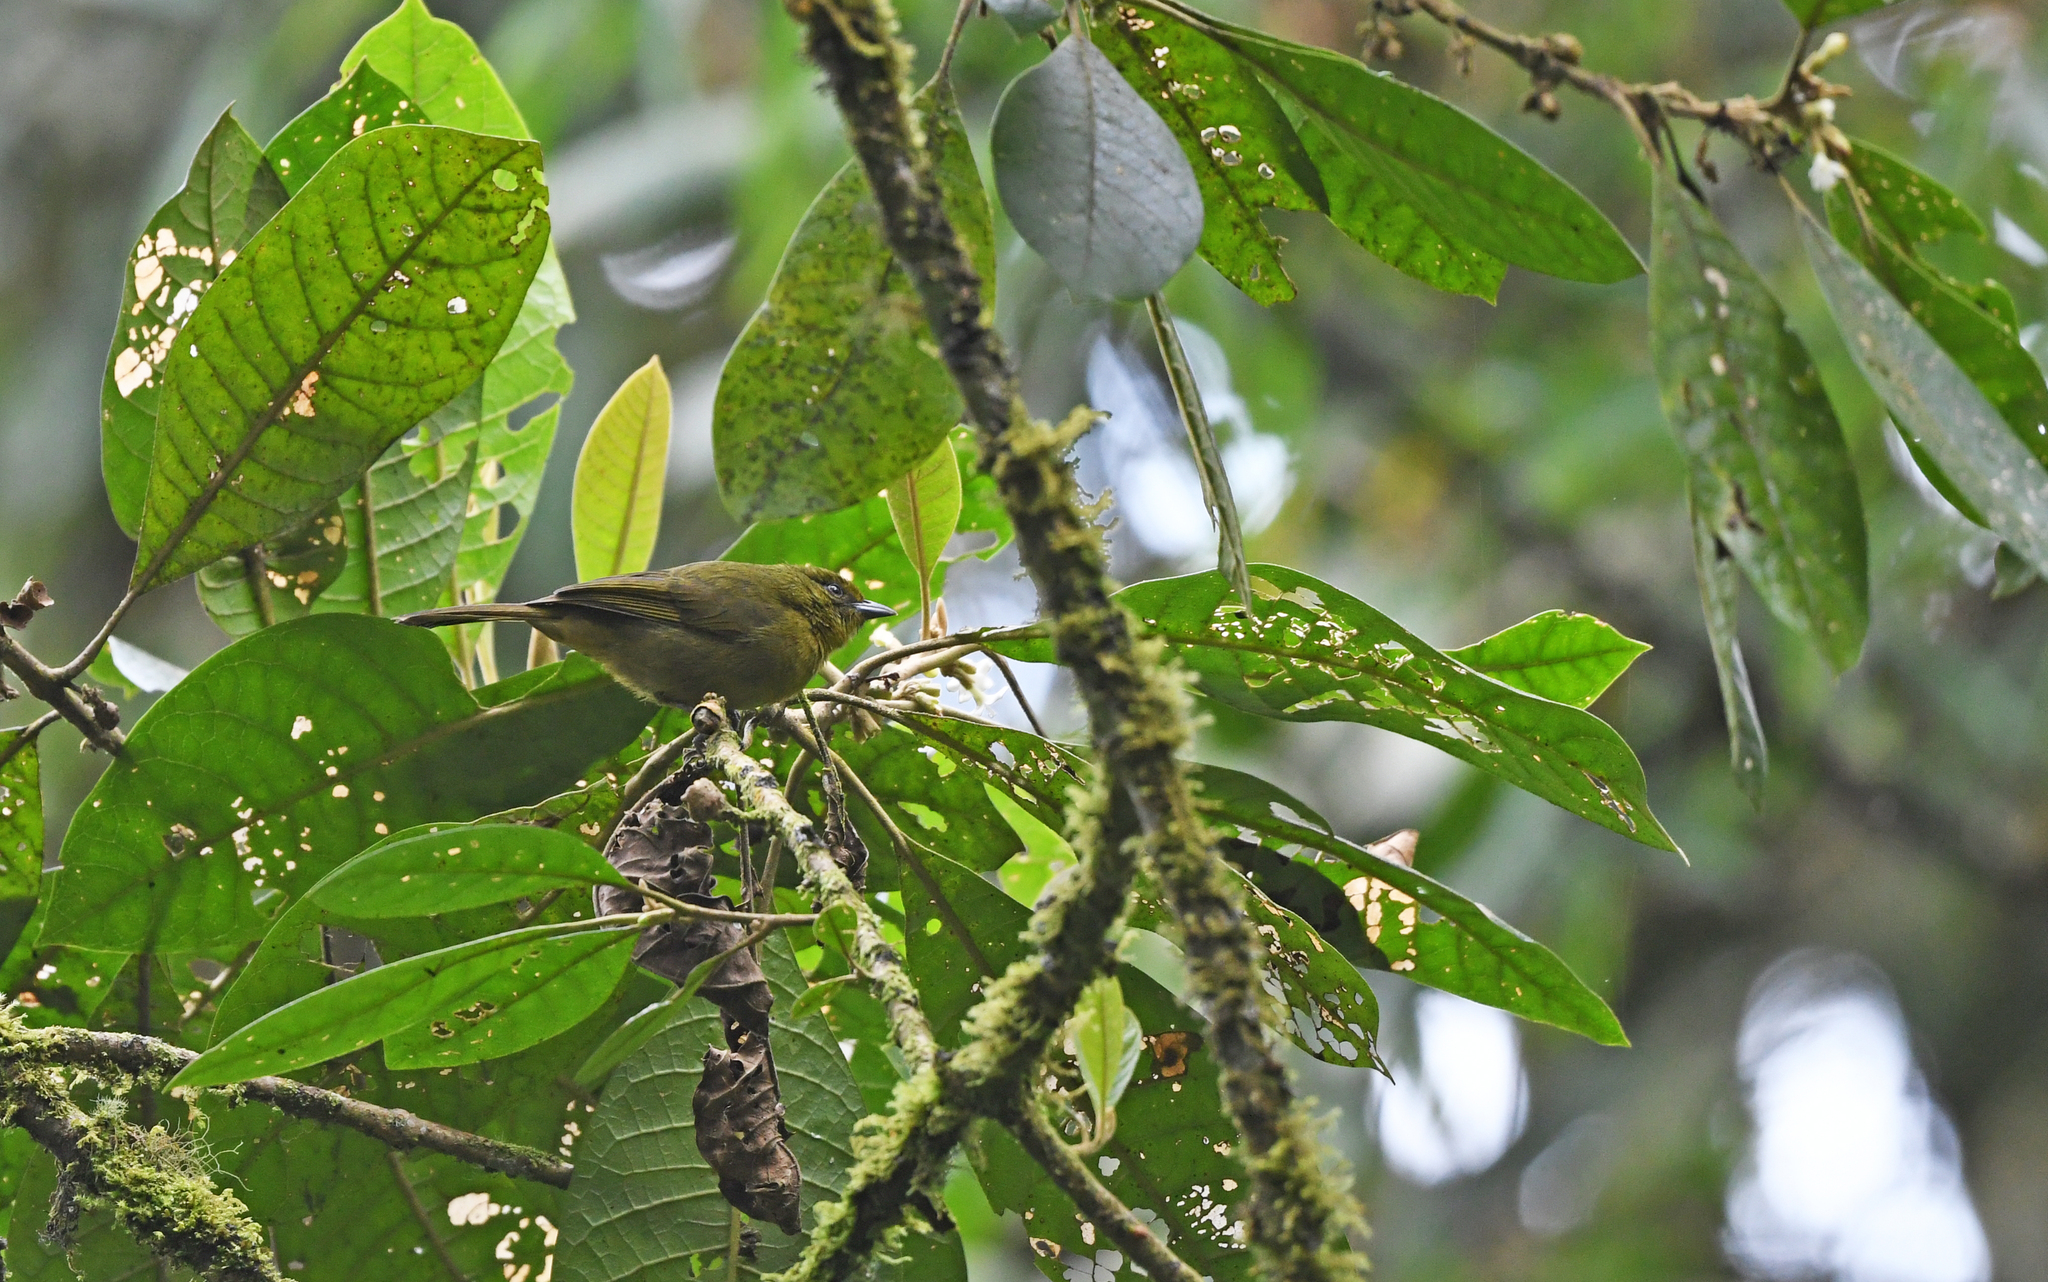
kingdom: Animalia
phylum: Chordata
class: Aves
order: Passeriformes
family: Thraupidae
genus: Sphenopsis
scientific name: Sphenopsis frontalis
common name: Oleaginous hemispingus
